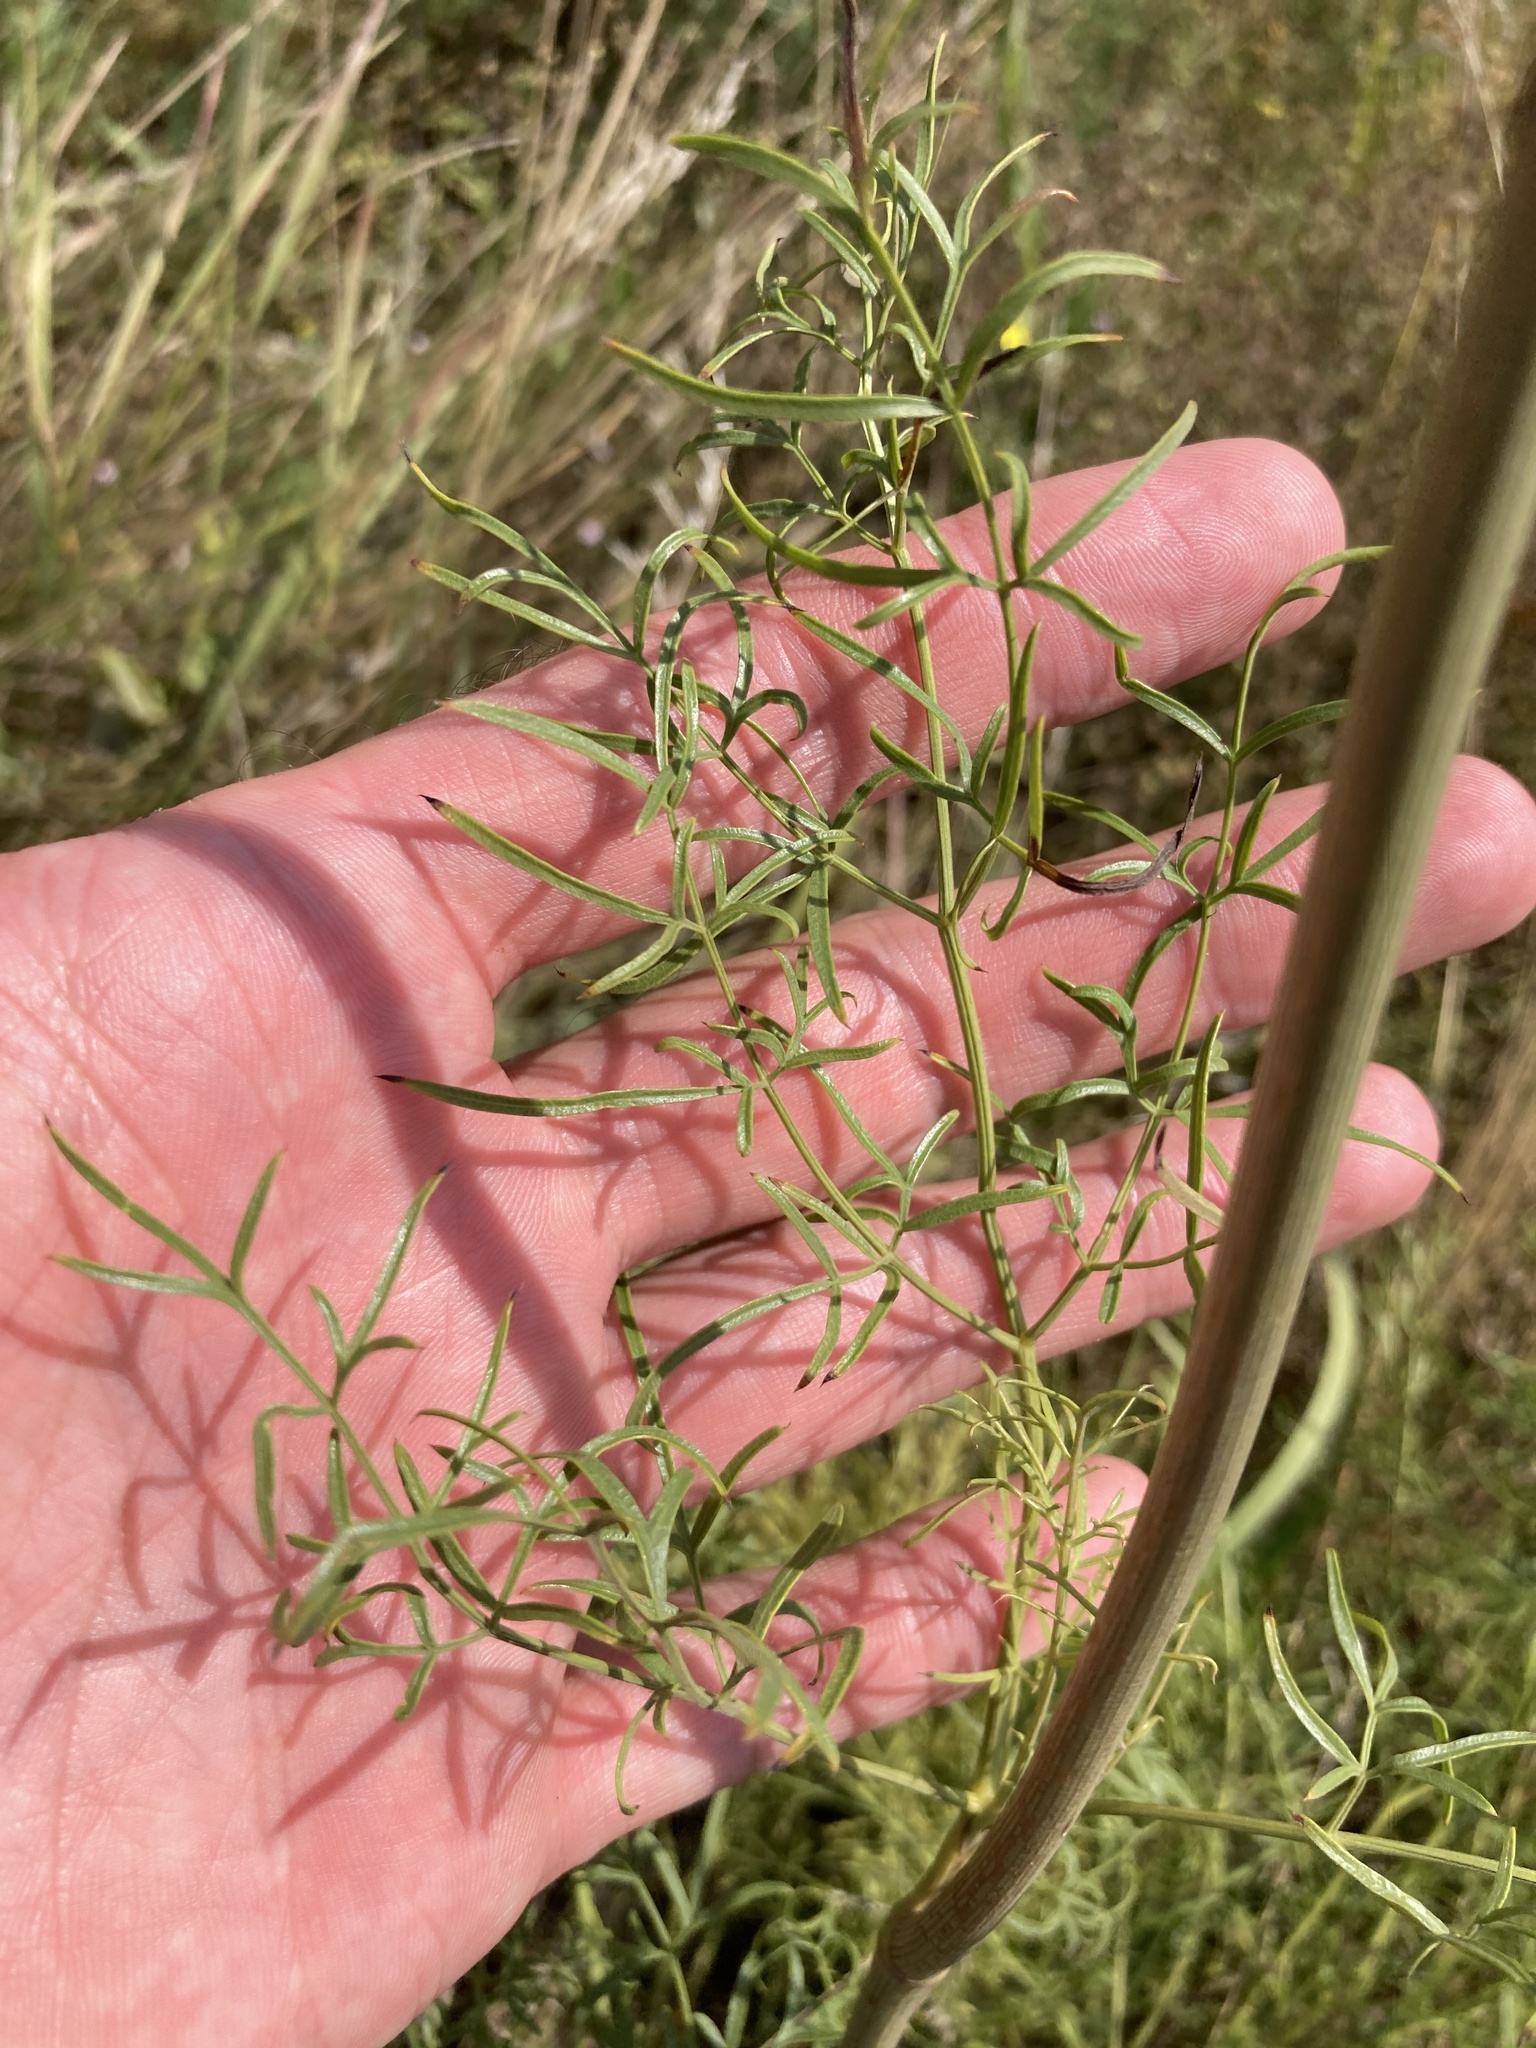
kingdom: Plantae
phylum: Tracheophyta
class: Magnoliopsida
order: Apiales
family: Apiaceae
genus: Silaum
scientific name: Silaum silaus
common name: Pepper-saxifrage
